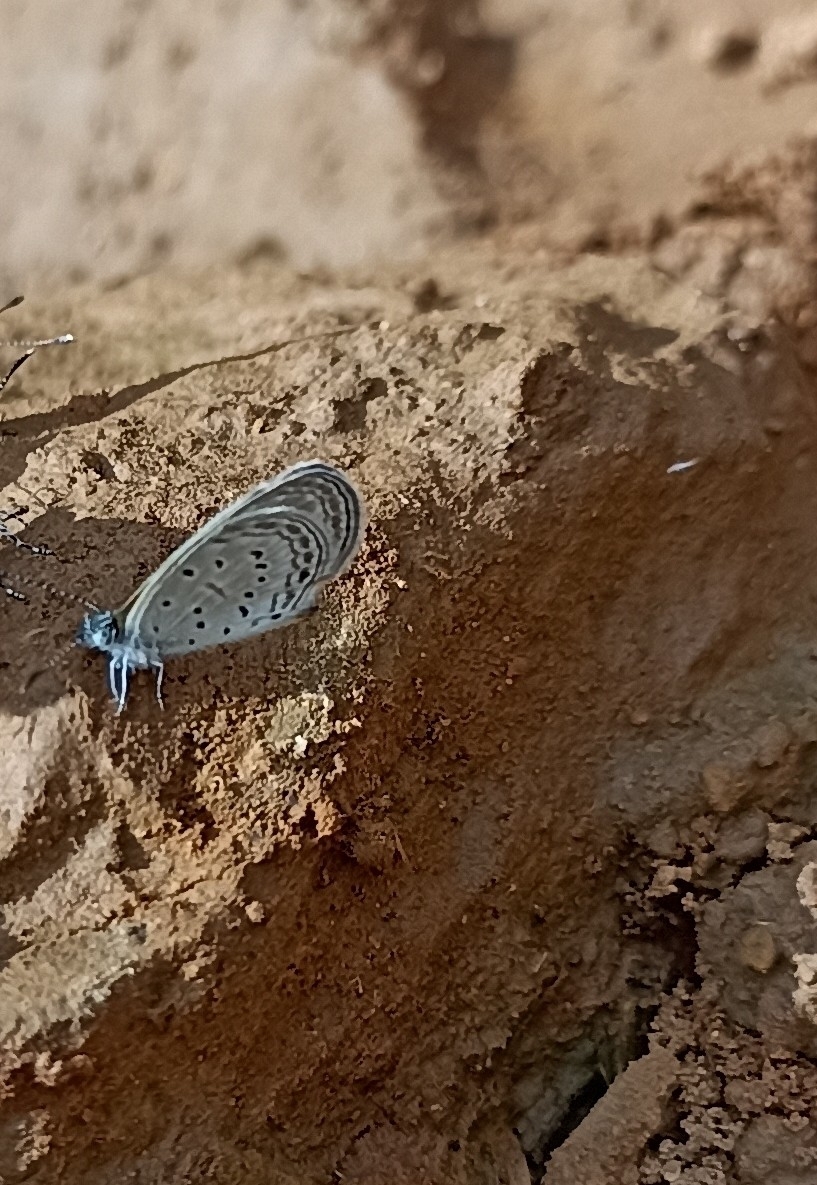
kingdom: Animalia
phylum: Arthropoda
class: Insecta
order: Lepidoptera
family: Lycaenidae
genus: Zizula
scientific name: Zizula hylax
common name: Gaika blue
